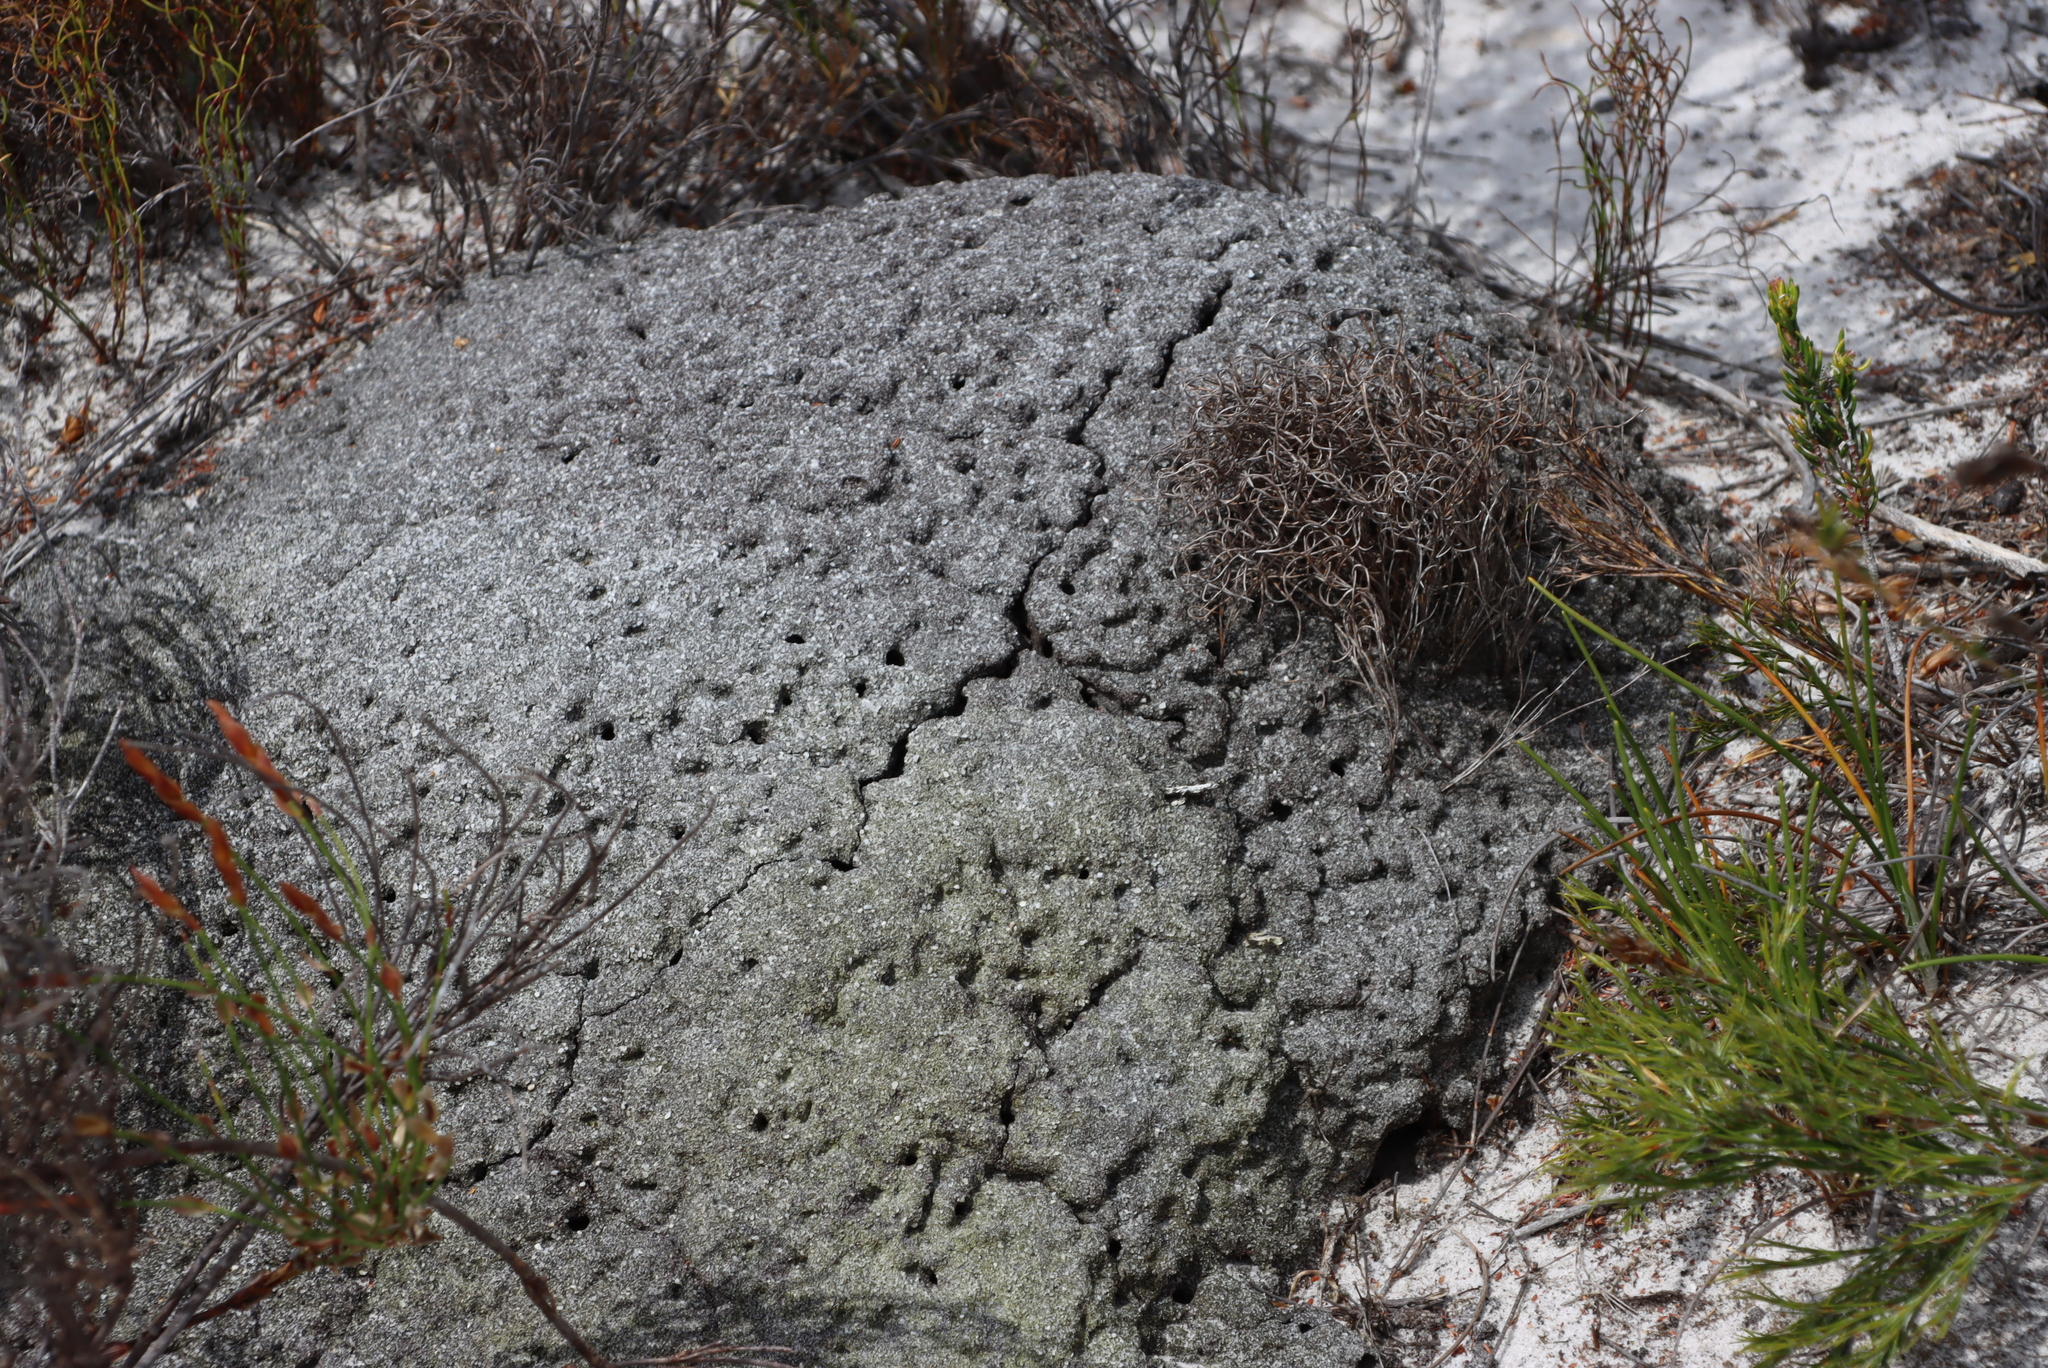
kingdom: Animalia
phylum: Arthropoda
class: Insecta
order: Blattodea
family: Termitidae
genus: Amitermes
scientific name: Amitermes hastatus
